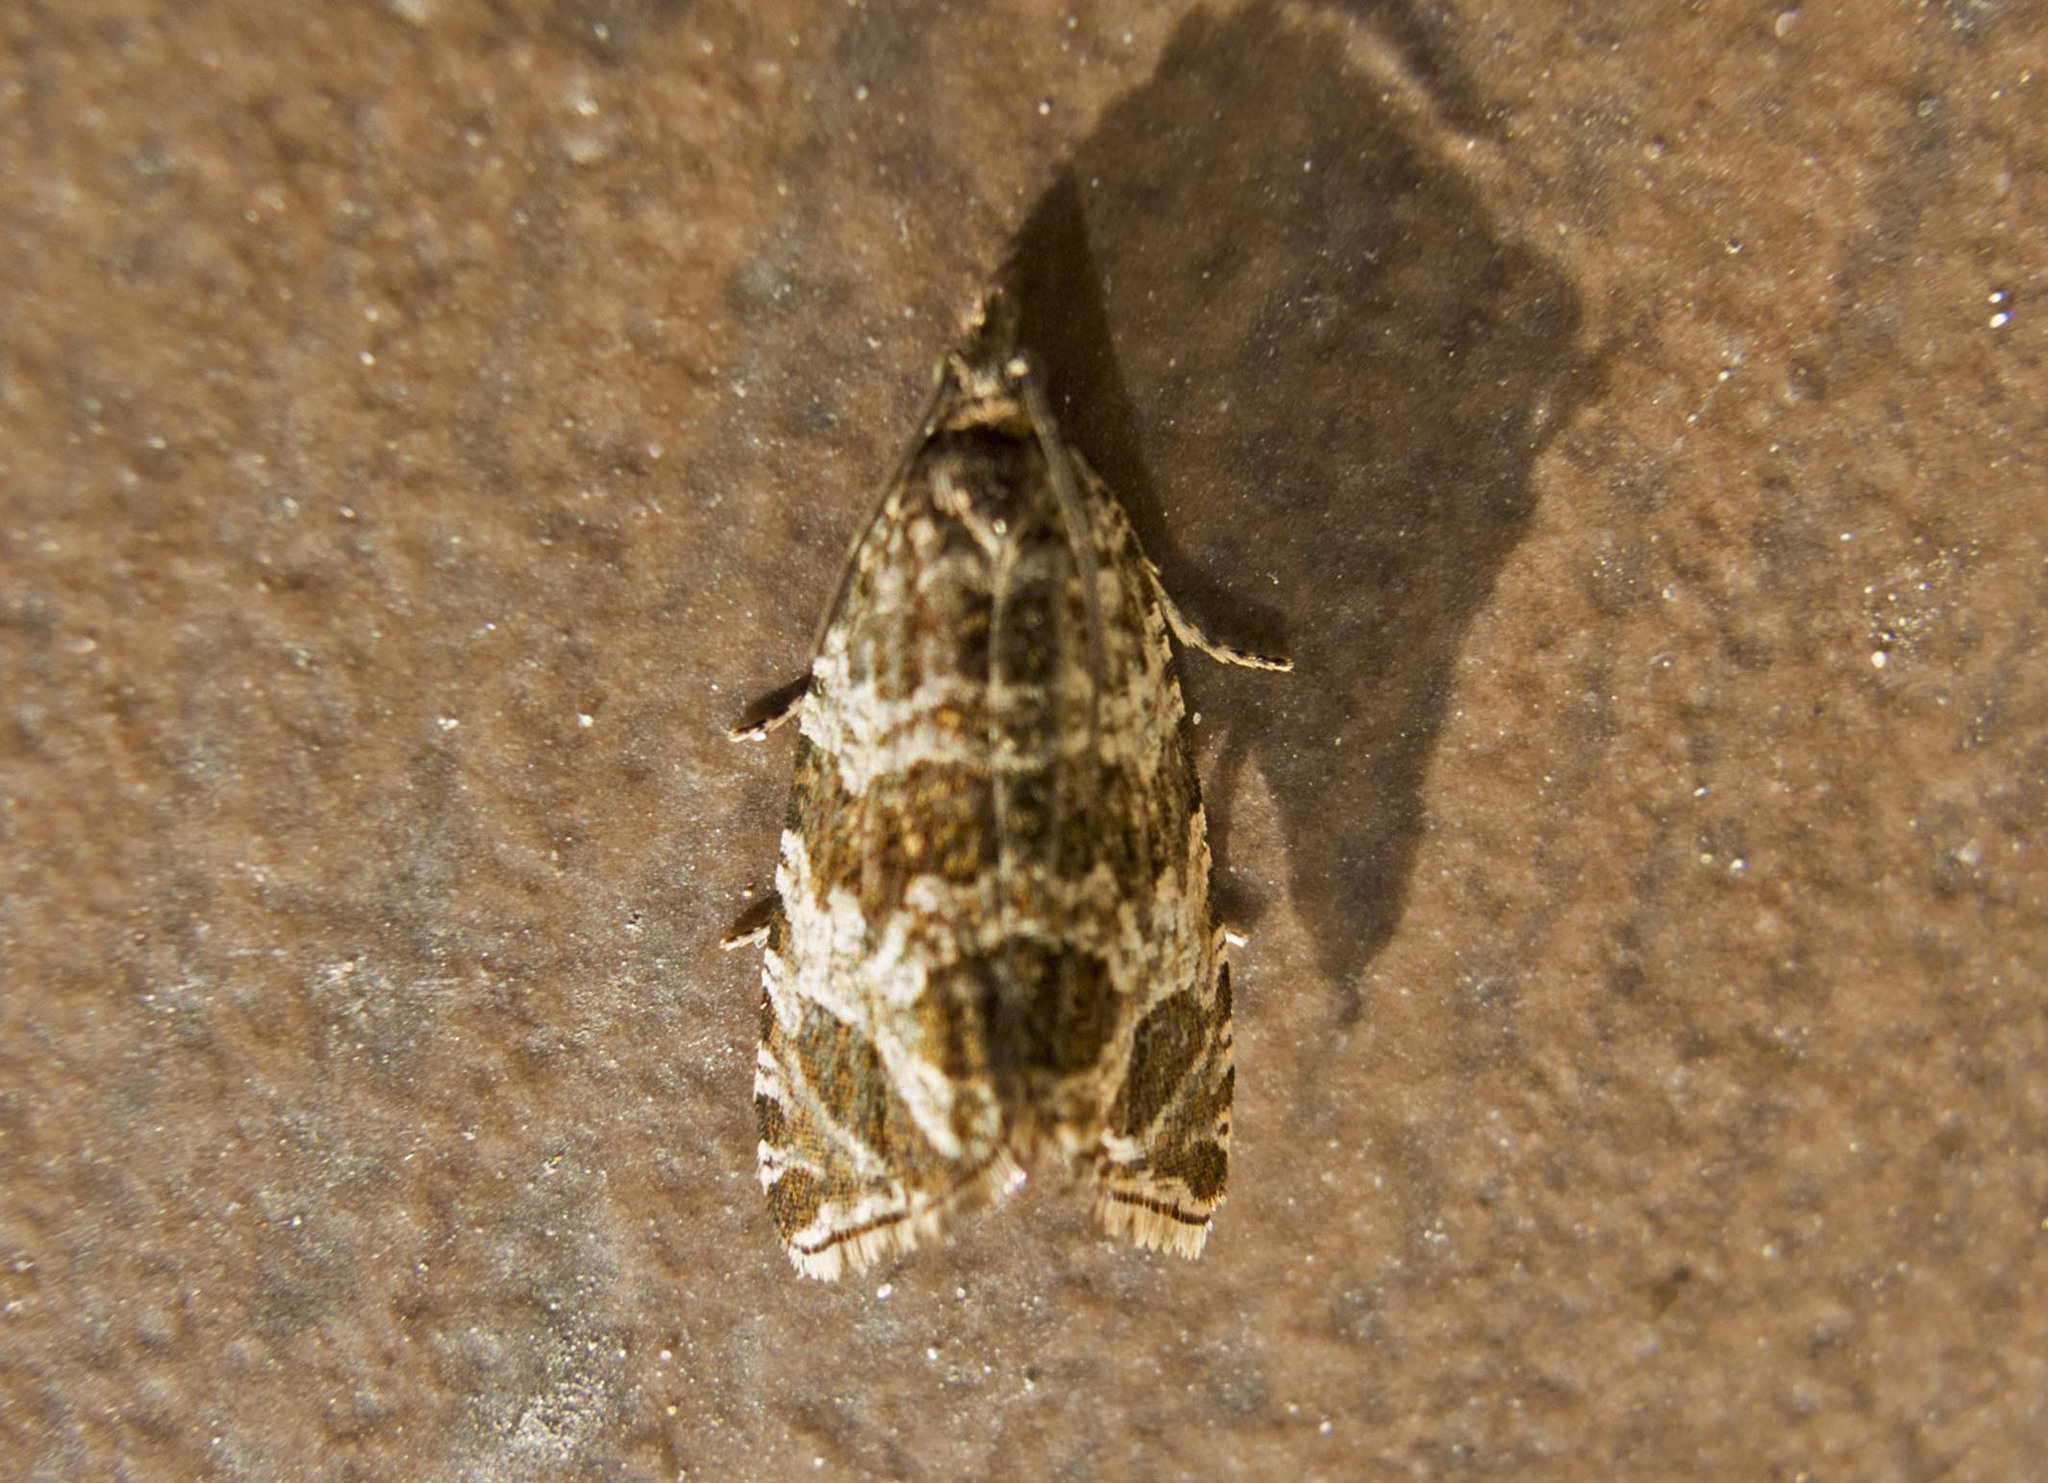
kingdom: Animalia
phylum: Arthropoda
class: Insecta
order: Lepidoptera
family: Tortricidae
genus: Syricoris
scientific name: Syricoris rivulana
